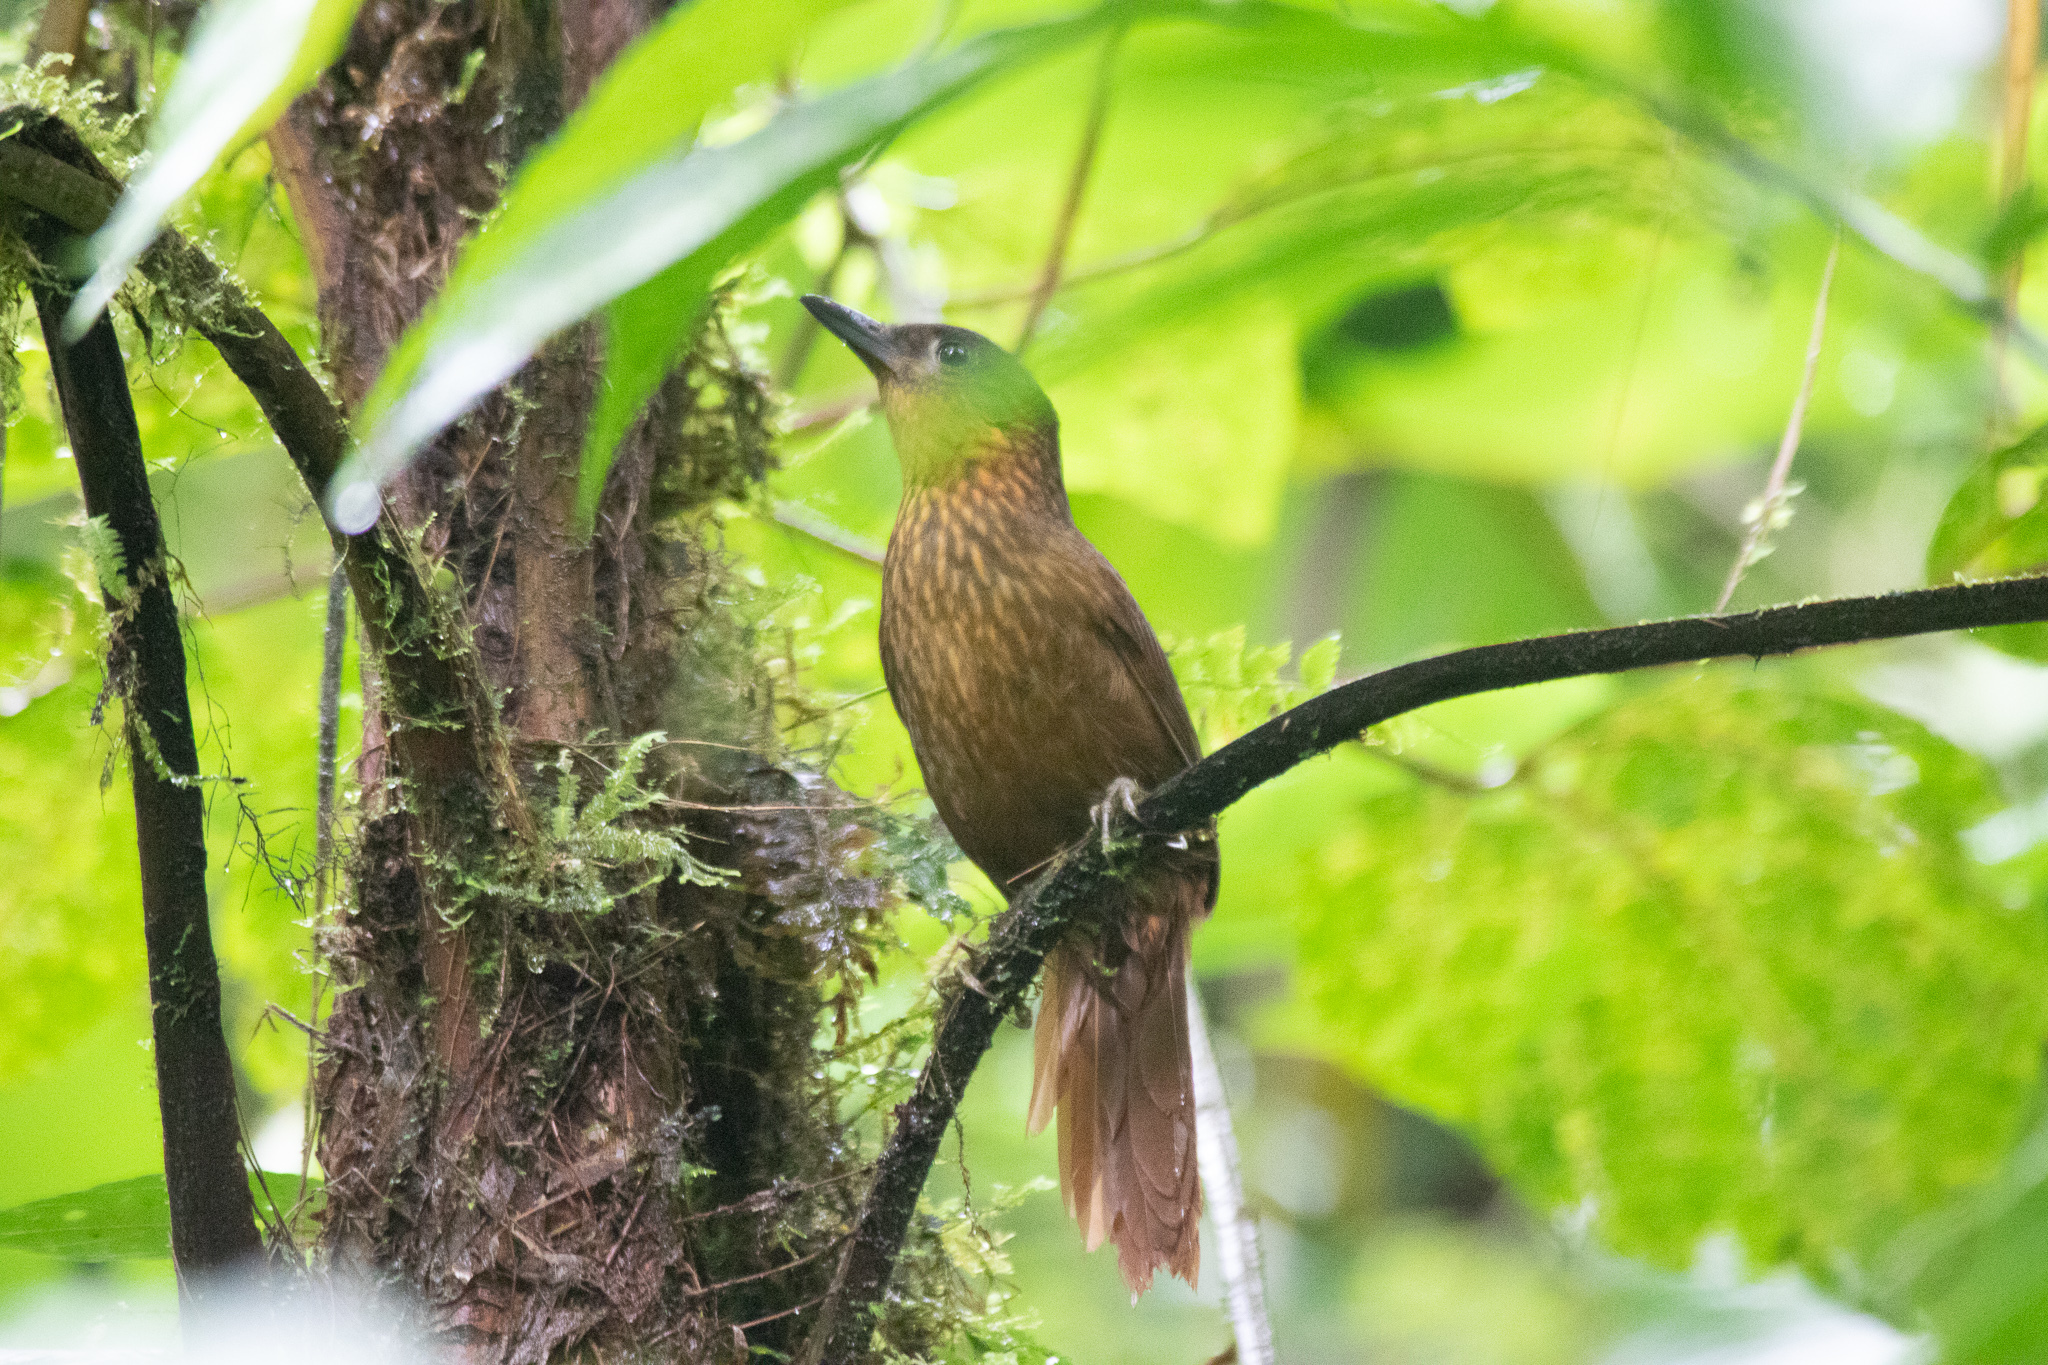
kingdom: Animalia
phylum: Chordata
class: Aves
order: Passeriformes
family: Furnariidae
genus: Thripadectes
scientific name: Thripadectes rufobrunneus
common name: Streak-breasted treehunter
